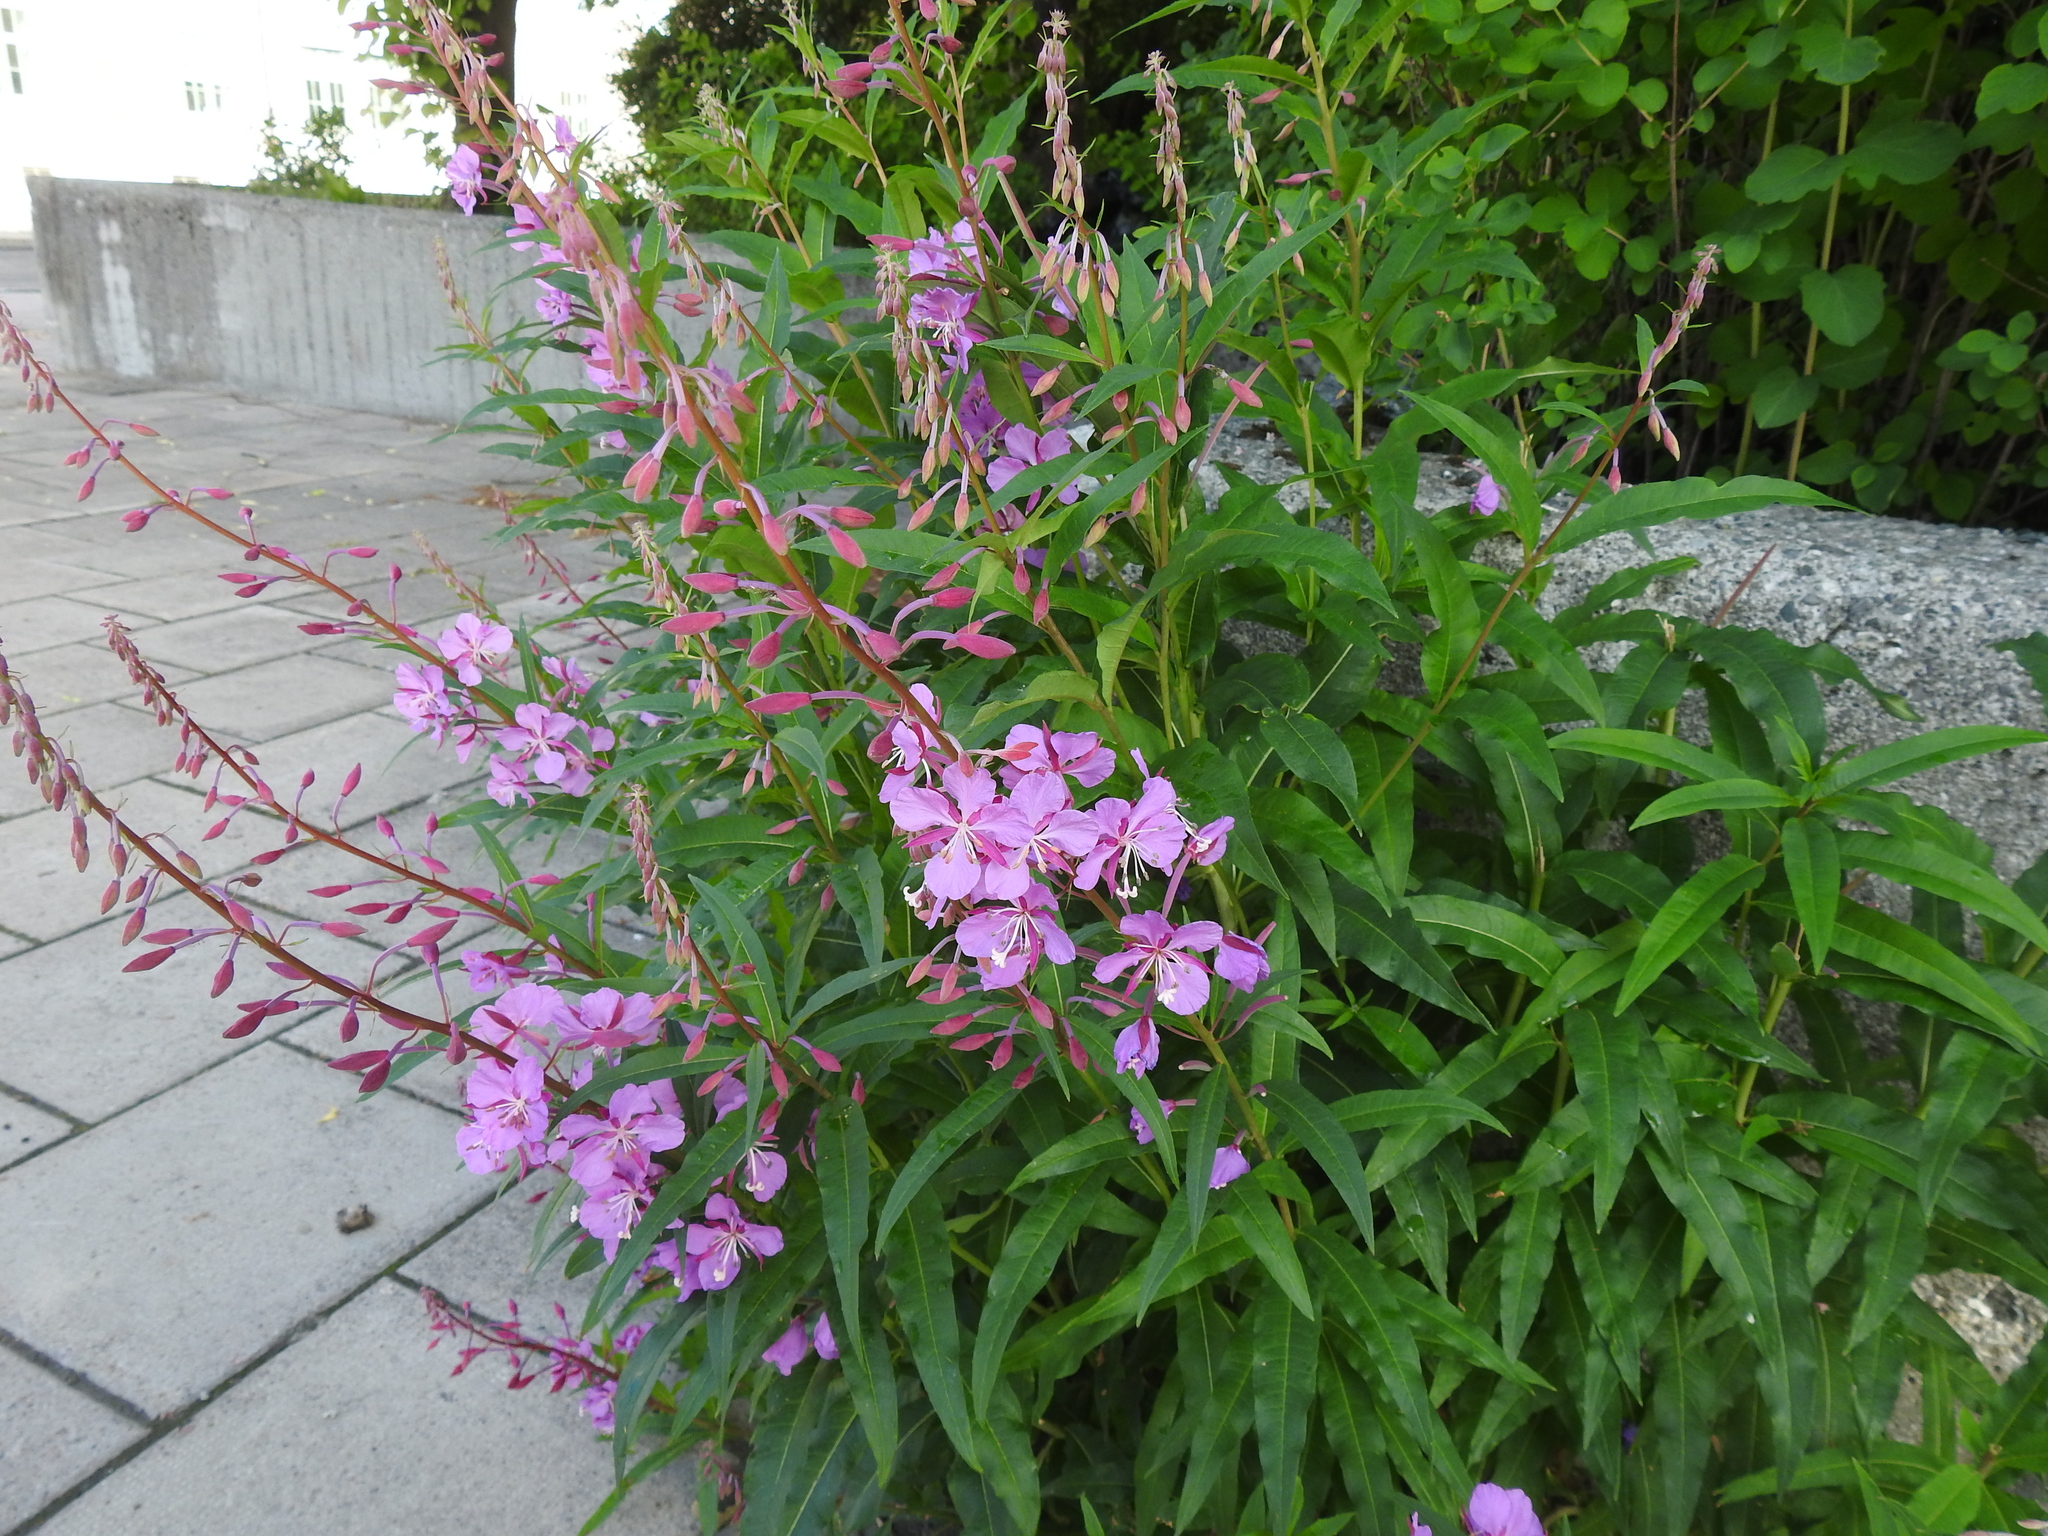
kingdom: Plantae
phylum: Tracheophyta
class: Magnoliopsida
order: Myrtales
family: Onagraceae
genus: Chamaenerion
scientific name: Chamaenerion angustifolium
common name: Fireweed
